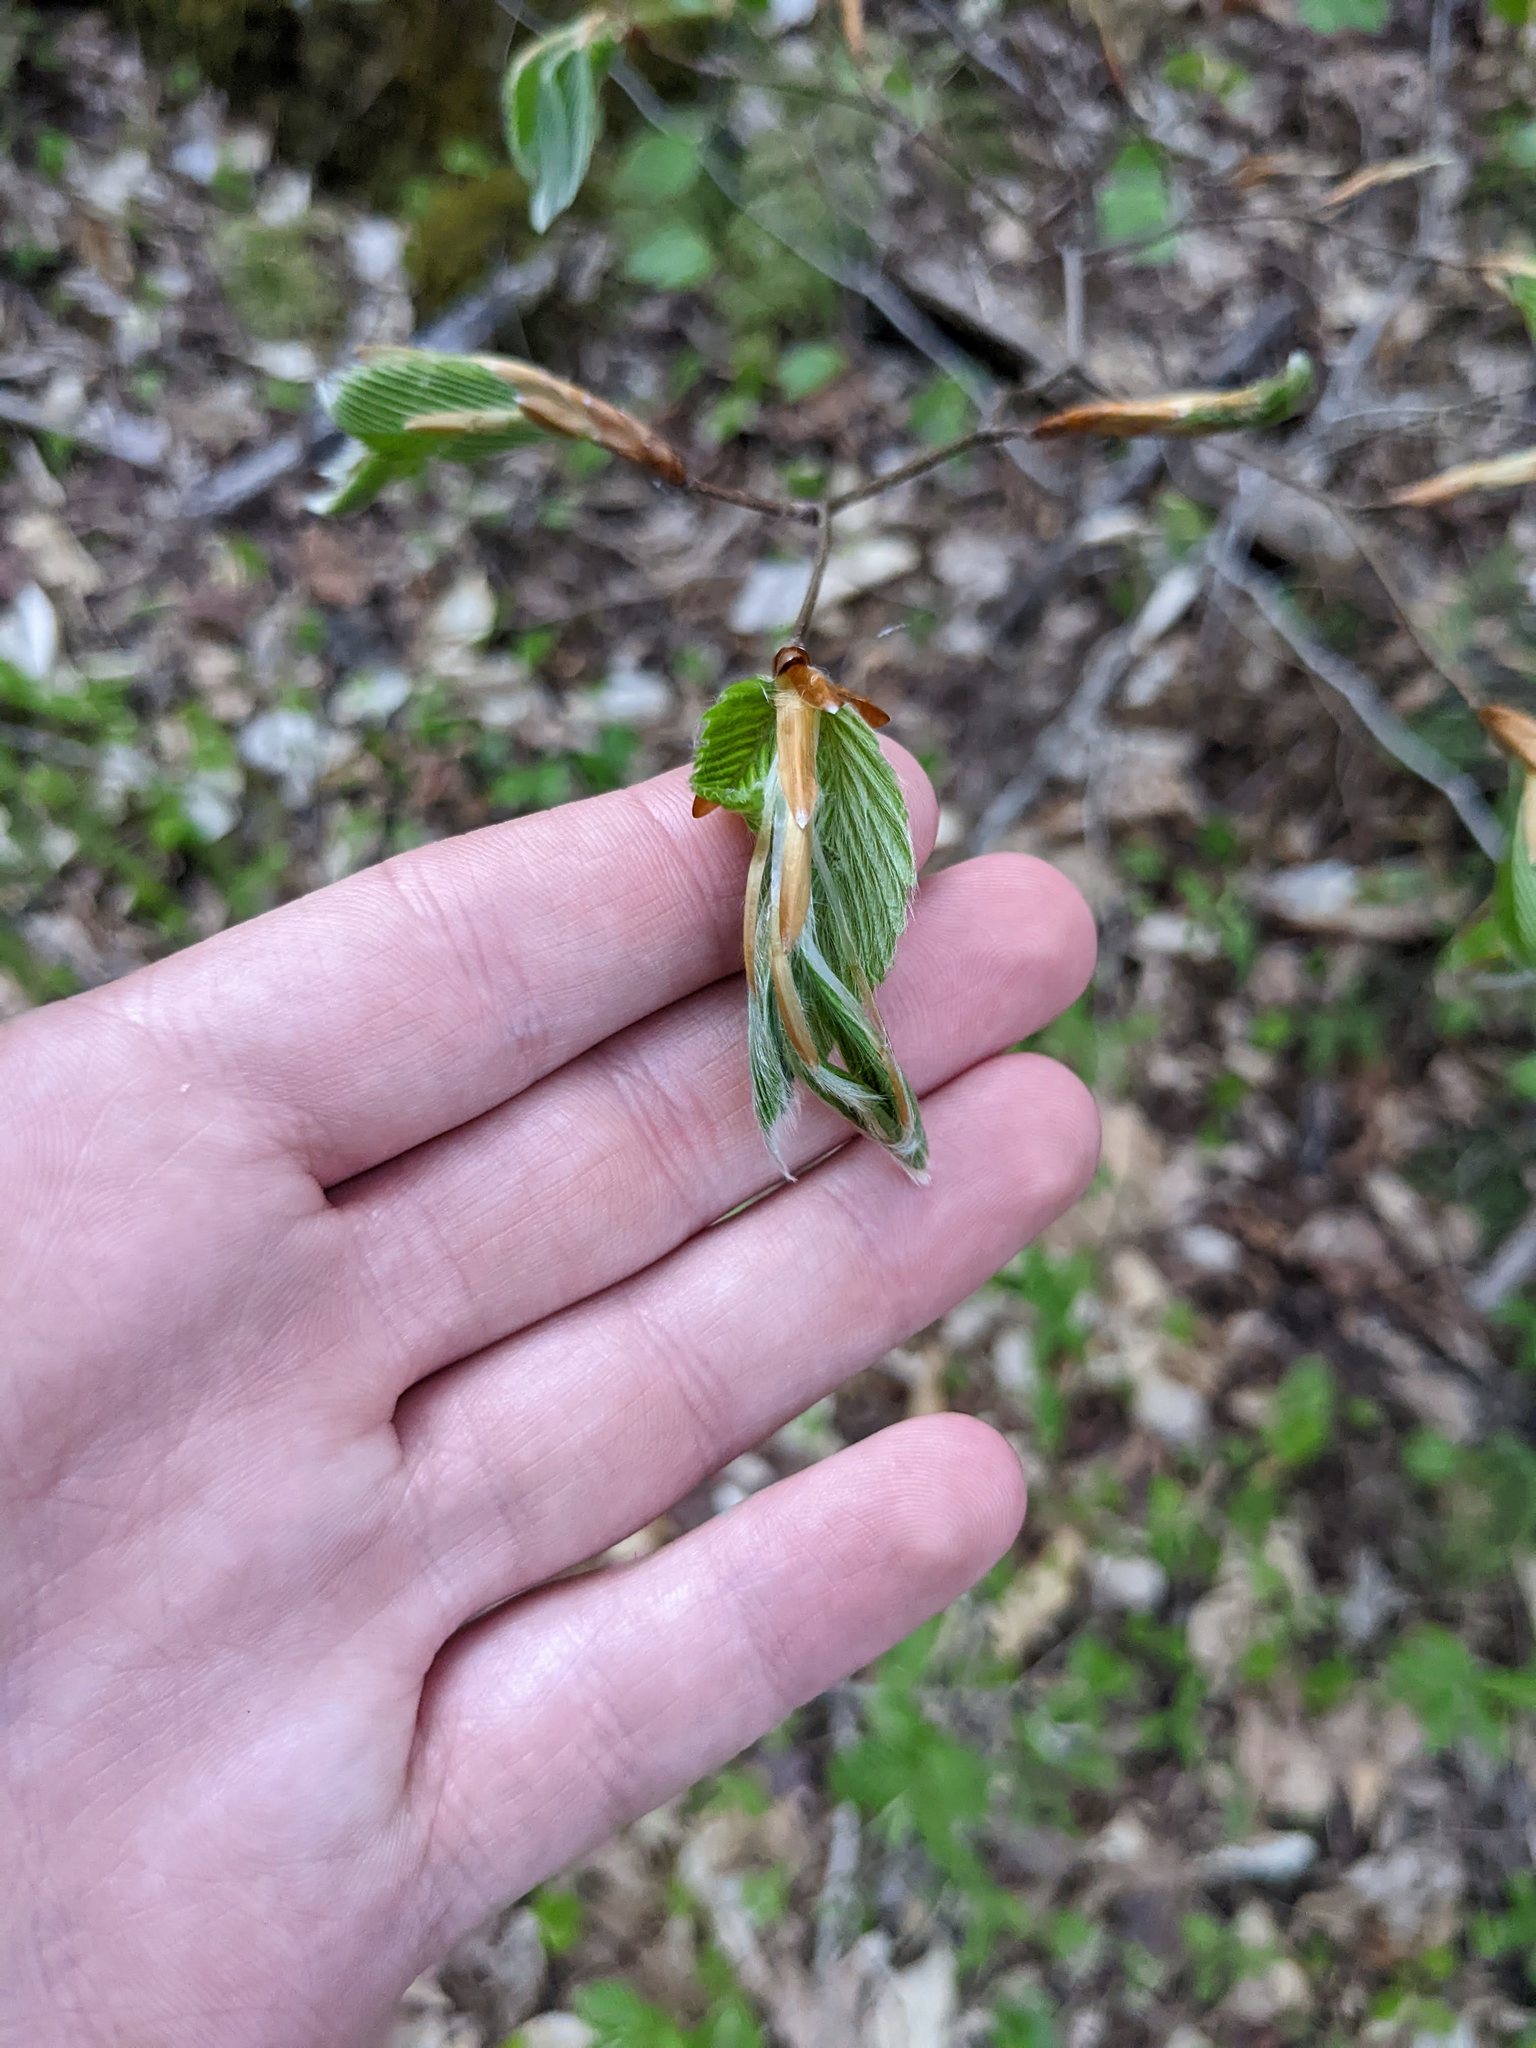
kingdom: Plantae
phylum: Tracheophyta
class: Magnoliopsida
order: Fagales
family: Fagaceae
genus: Fagus
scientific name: Fagus grandifolia
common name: American beech
